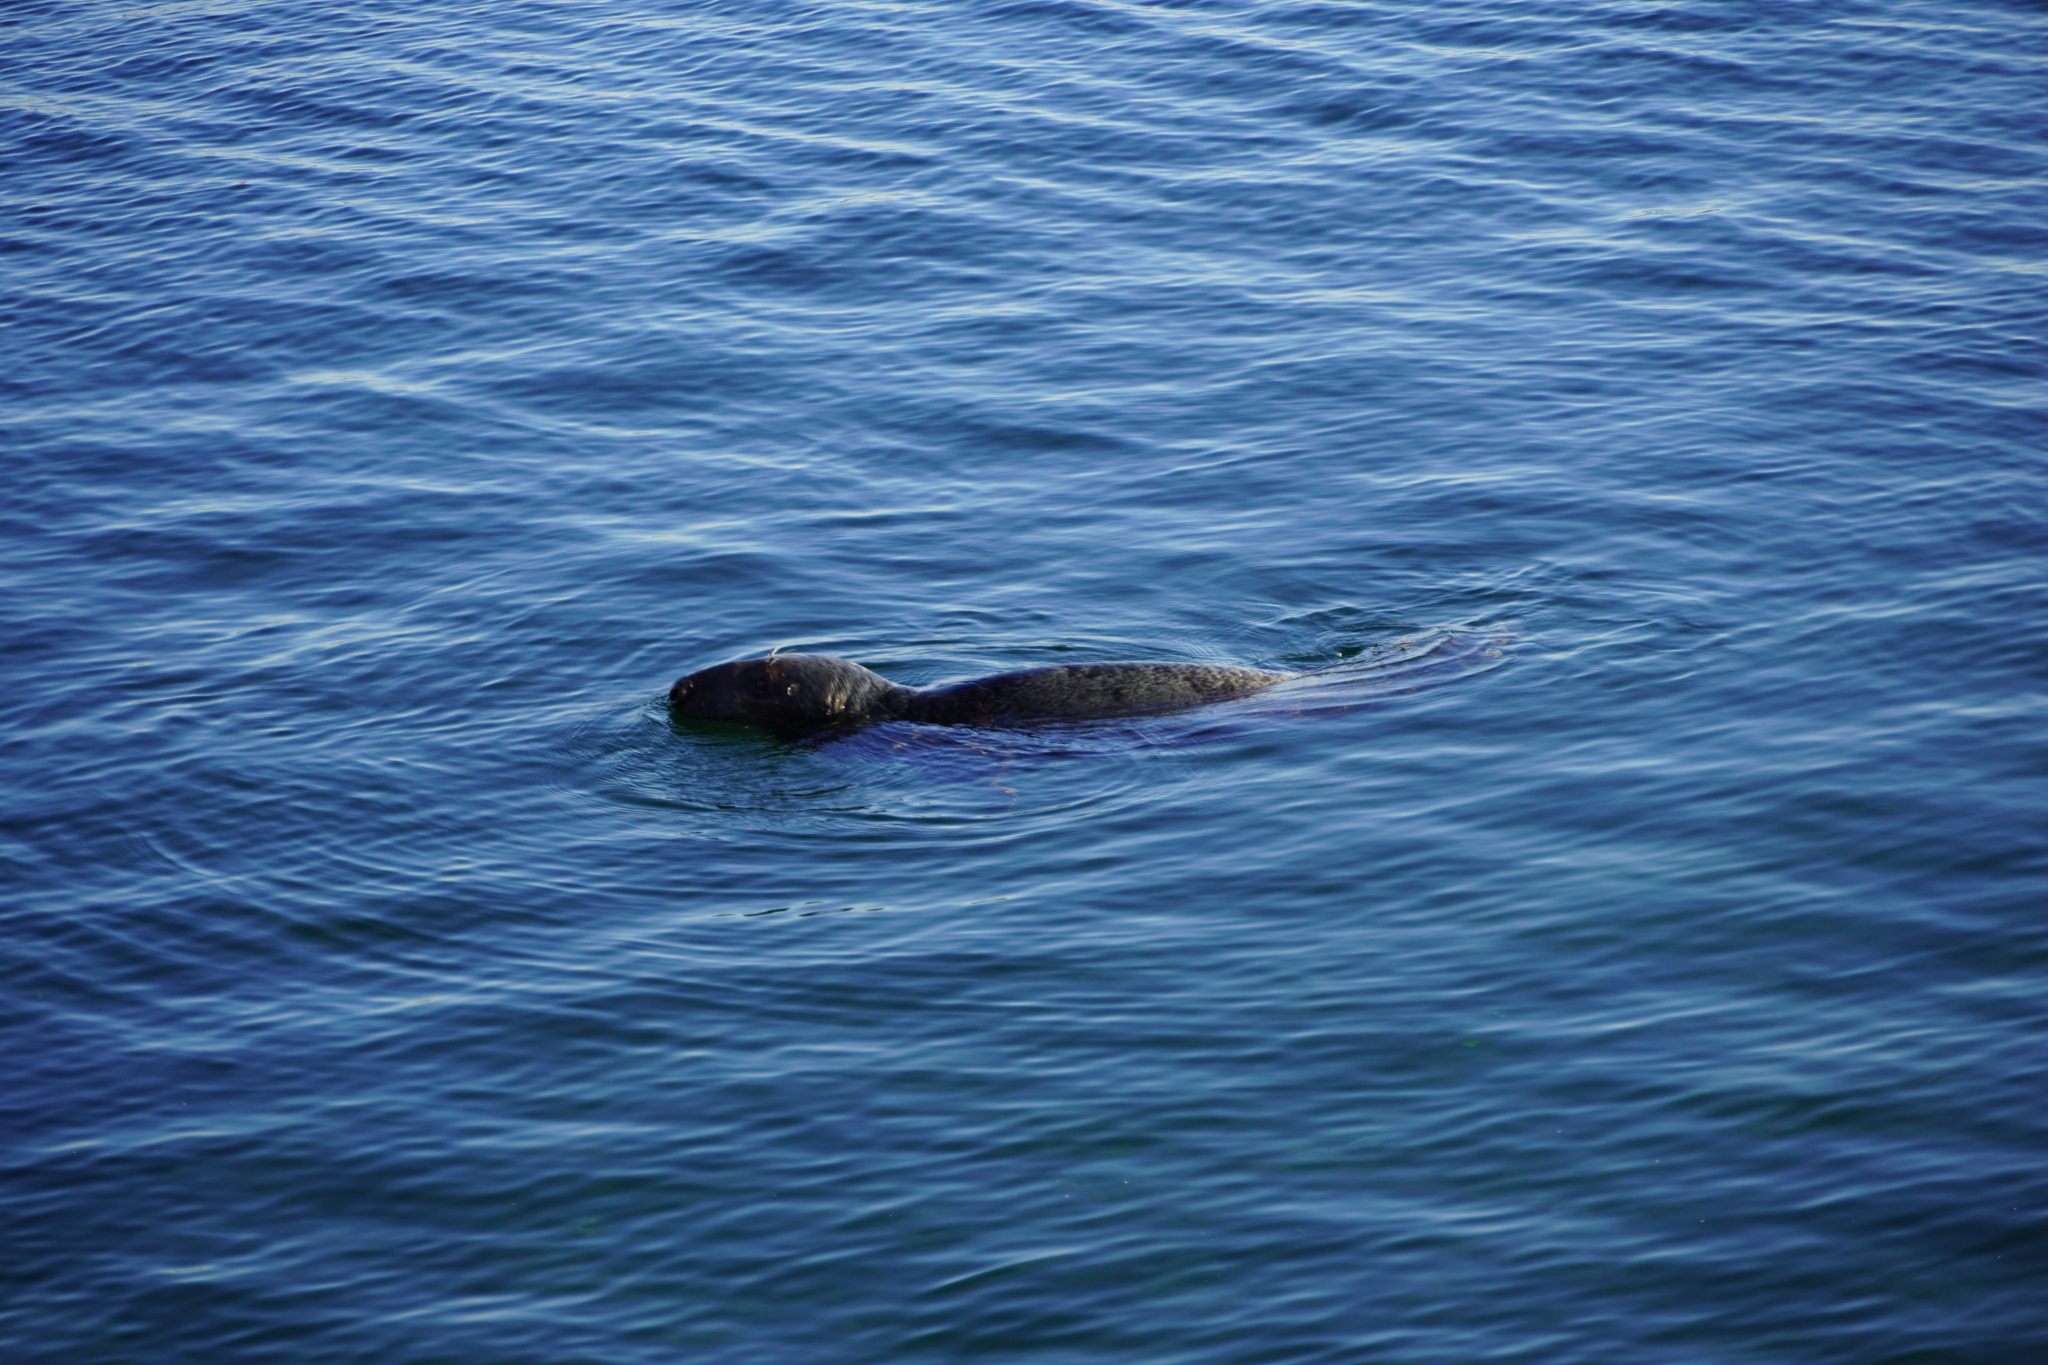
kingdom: Animalia
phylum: Chordata
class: Mammalia
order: Carnivora
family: Phocidae
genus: Halichoerus
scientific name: Halichoerus grypus
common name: Grey seal
